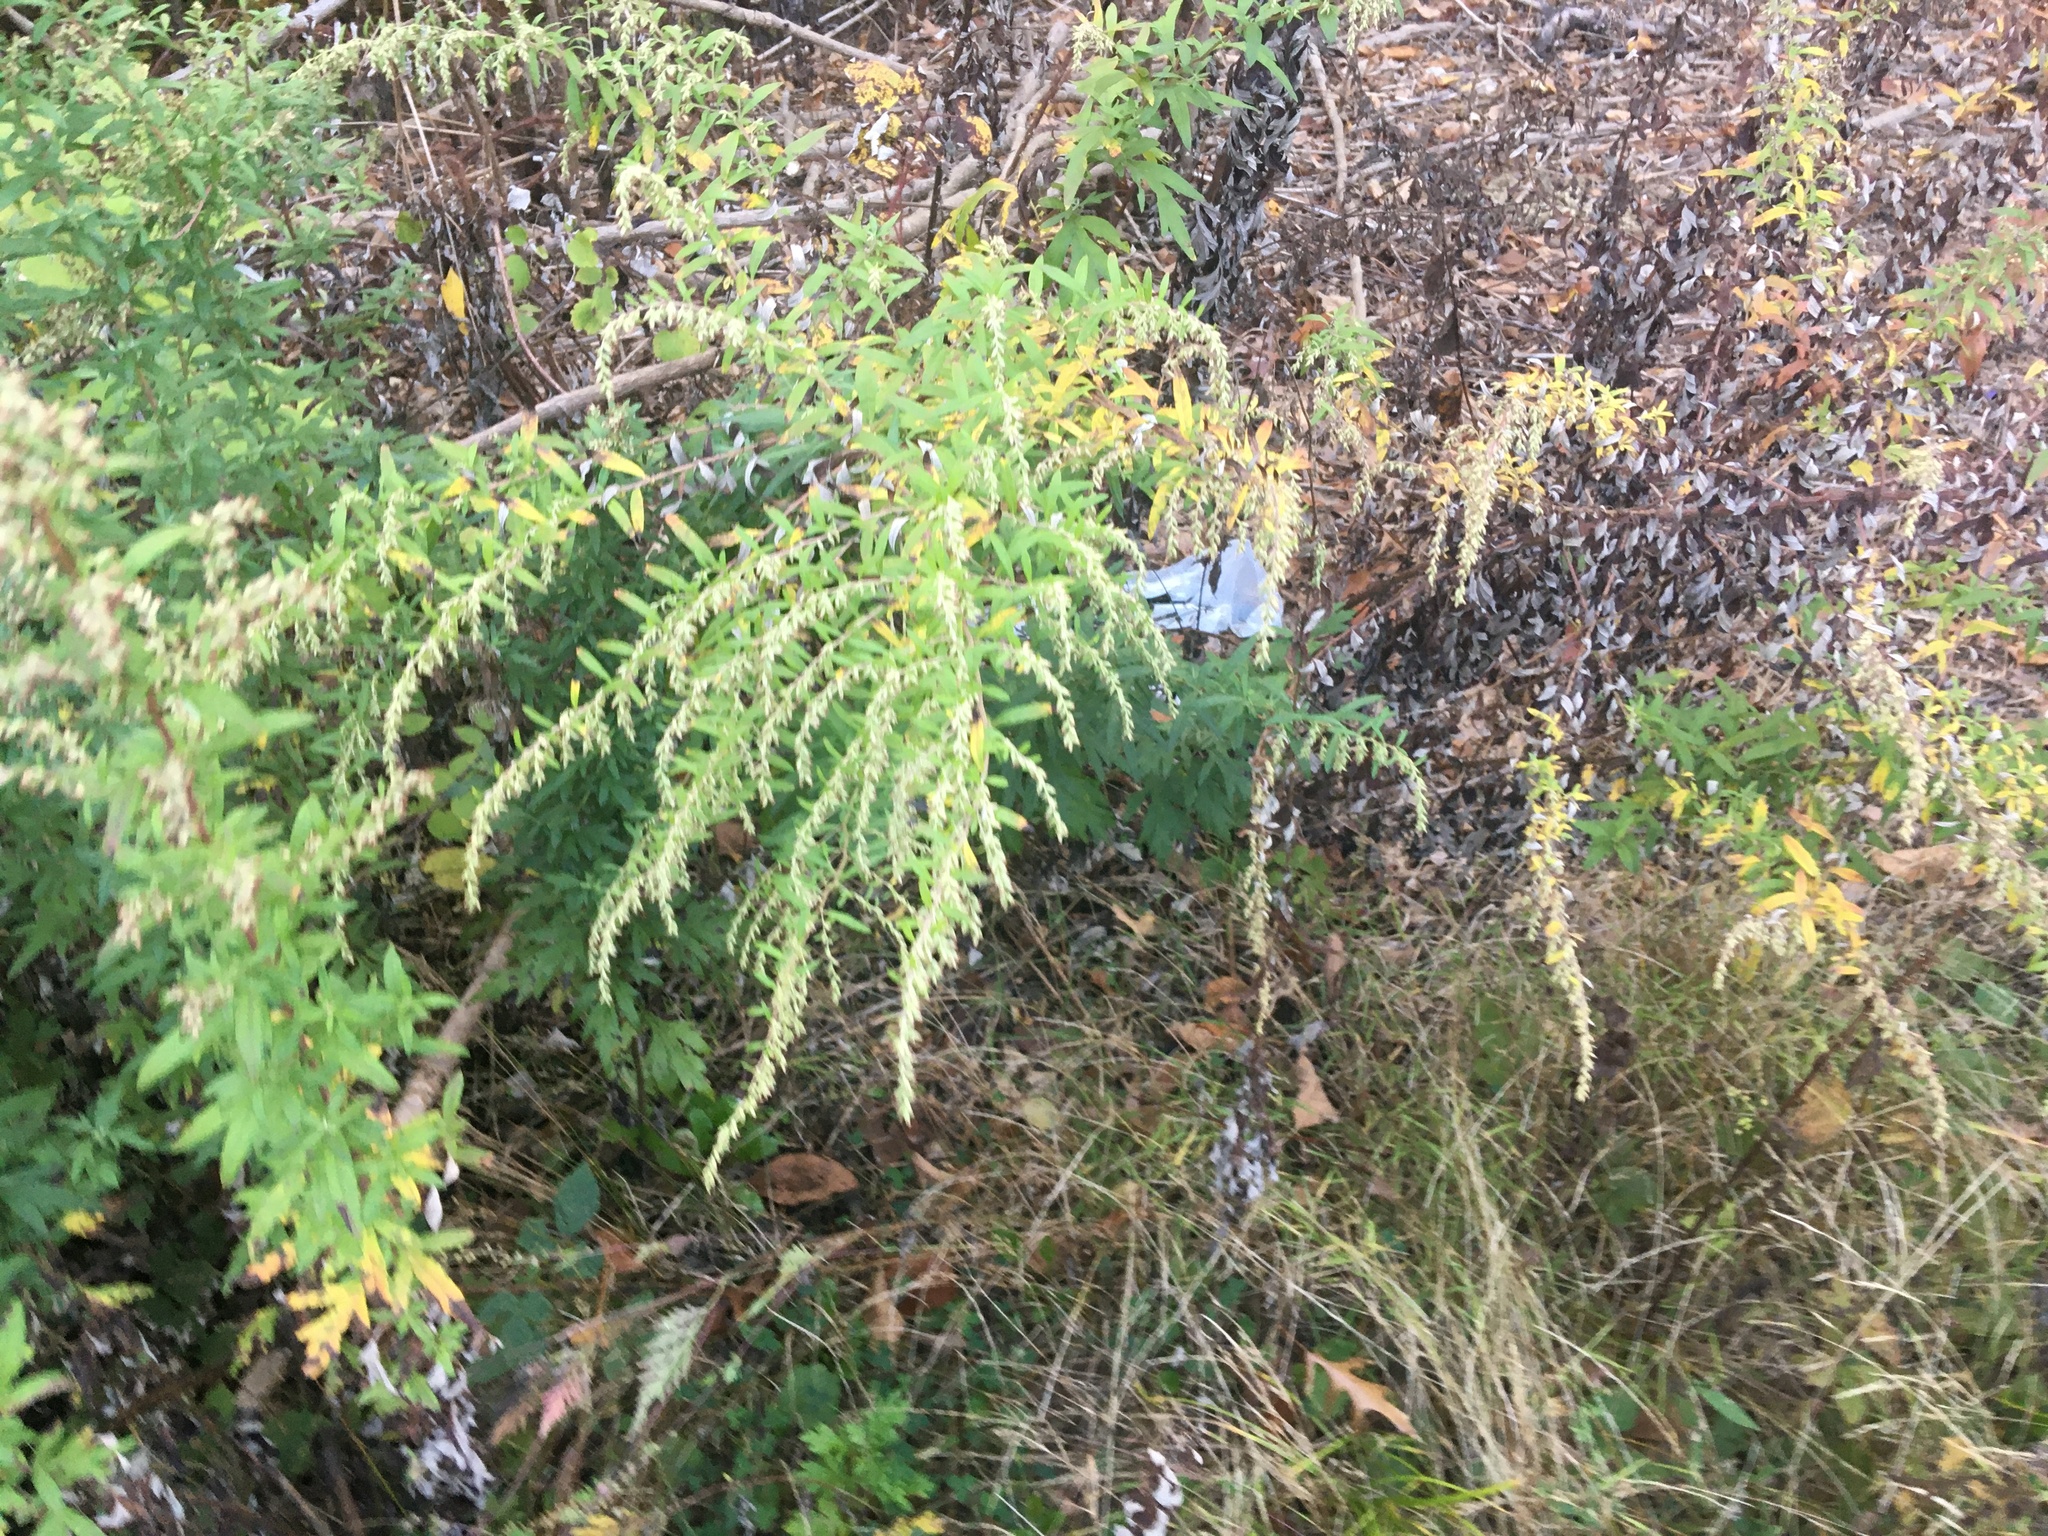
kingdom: Plantae
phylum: Tracheophyta
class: Magnoliopsida
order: Asterales
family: Asteraceae
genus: Artemisia
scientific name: Artemisia vulgaris
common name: Mugwort
